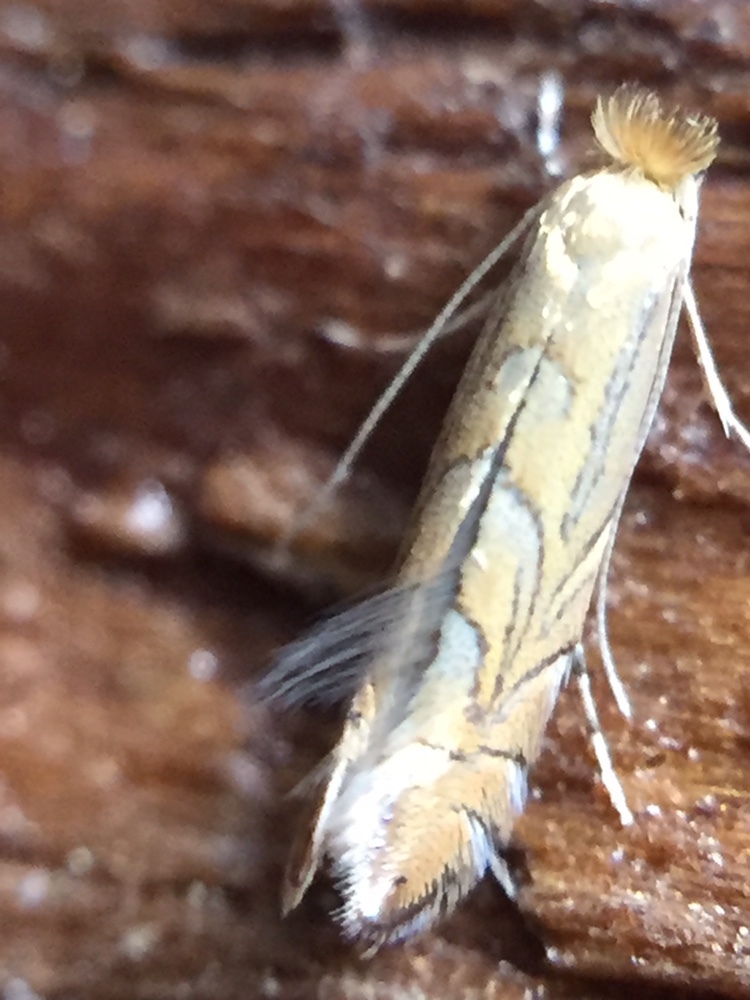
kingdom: Animalia
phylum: Arthropoda
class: Insecta
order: Lepidoptera
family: Gracillariidae
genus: Phyllonorycter
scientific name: Phyllonorycter messaniella
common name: Garden midget
